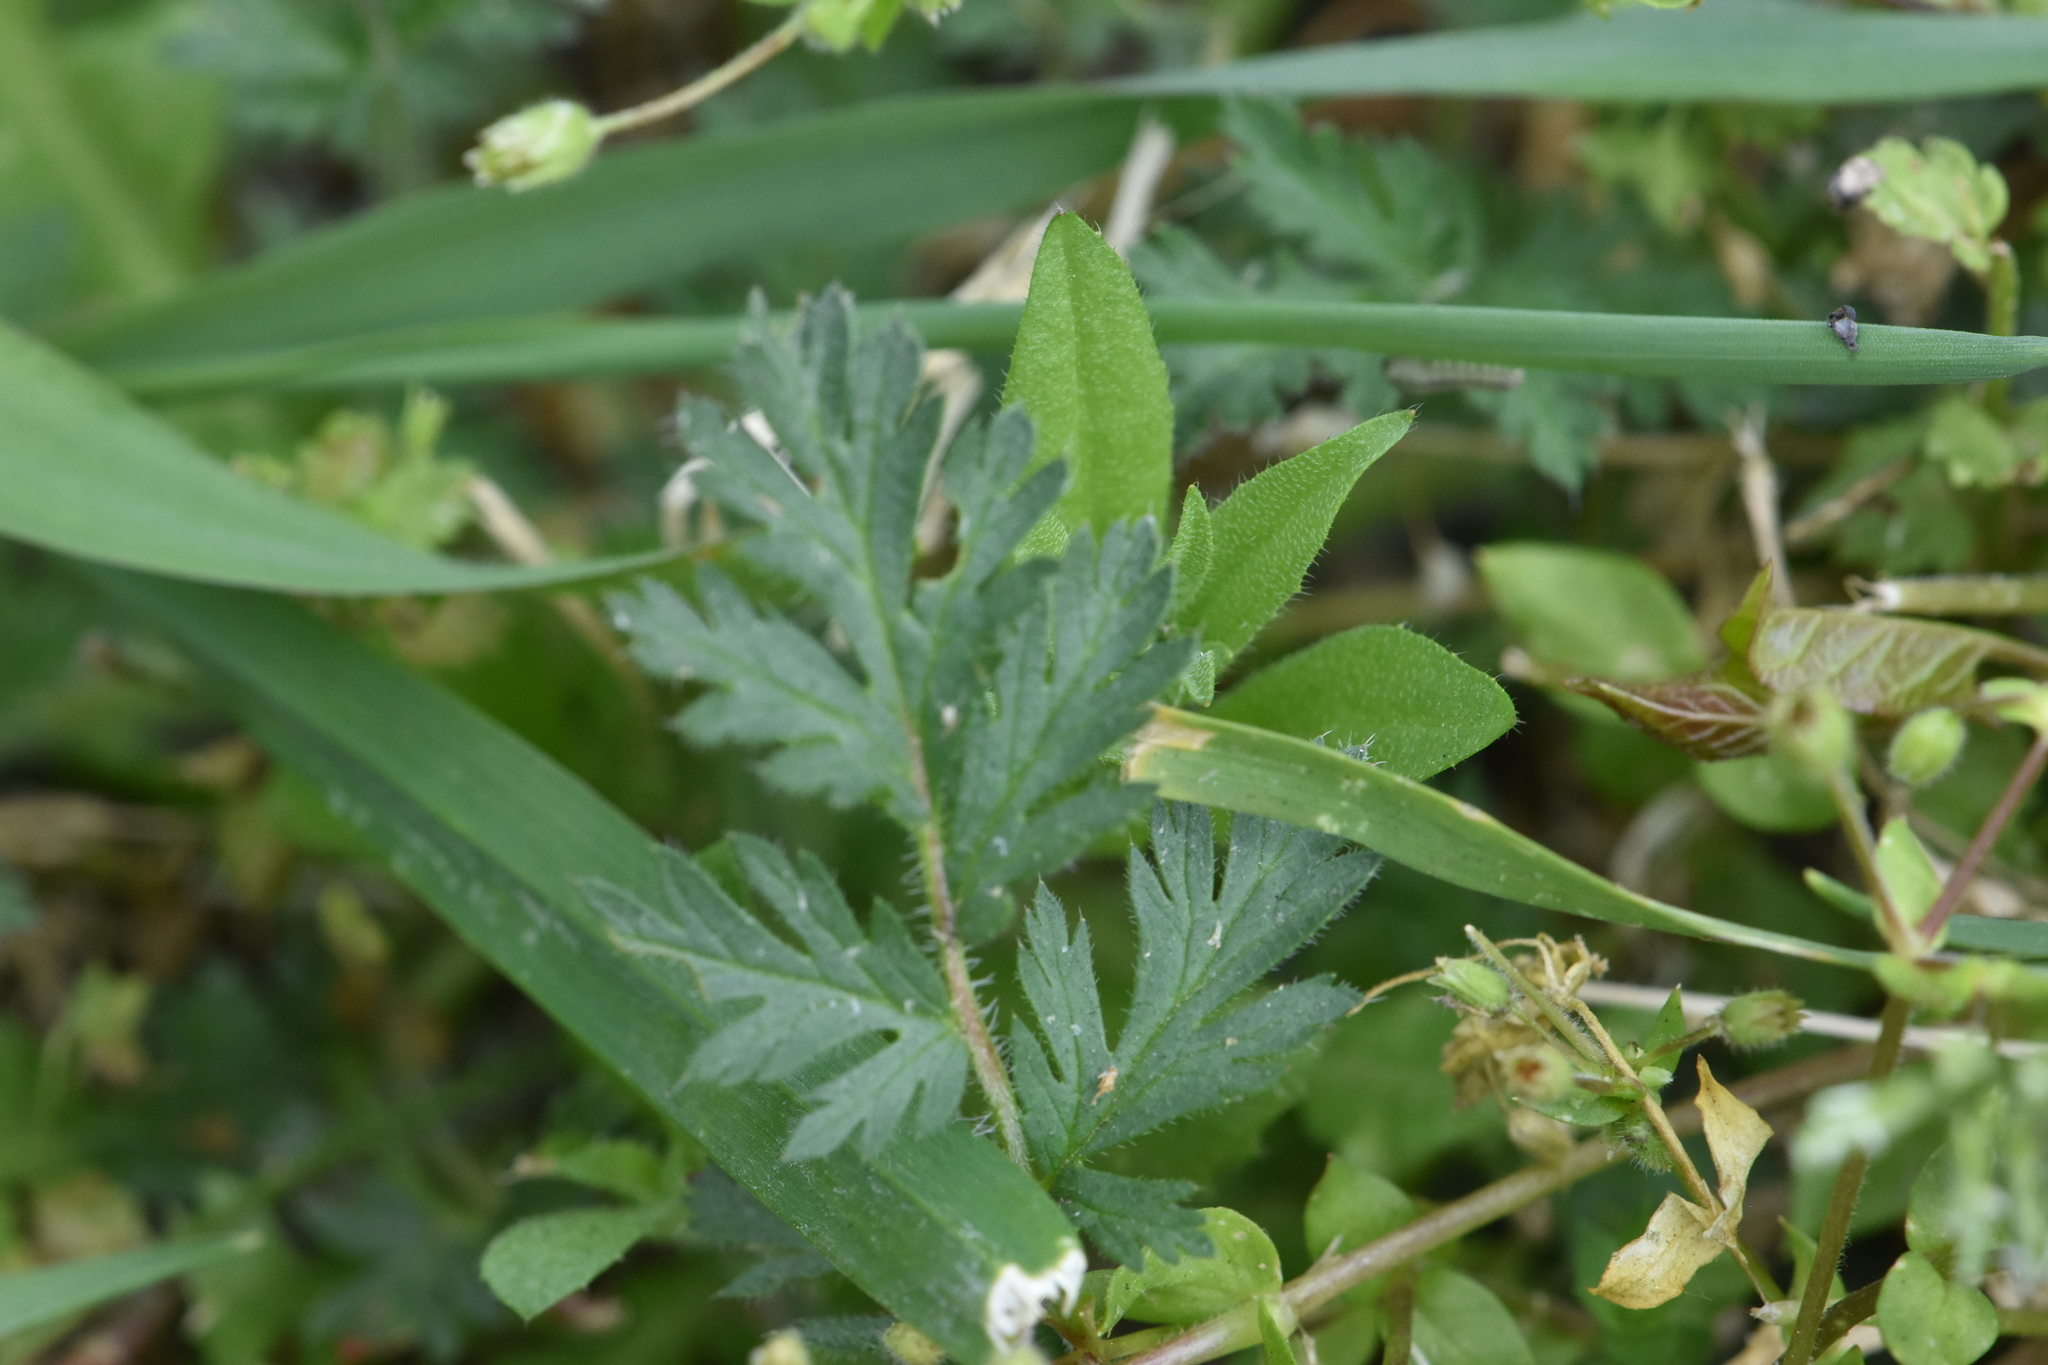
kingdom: Plantae
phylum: Tracheophyta
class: Magnoliopsida
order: Geraniales
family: Geraniaceae
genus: Erodium
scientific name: Erodium cicutarium
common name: Common stork's-bill
